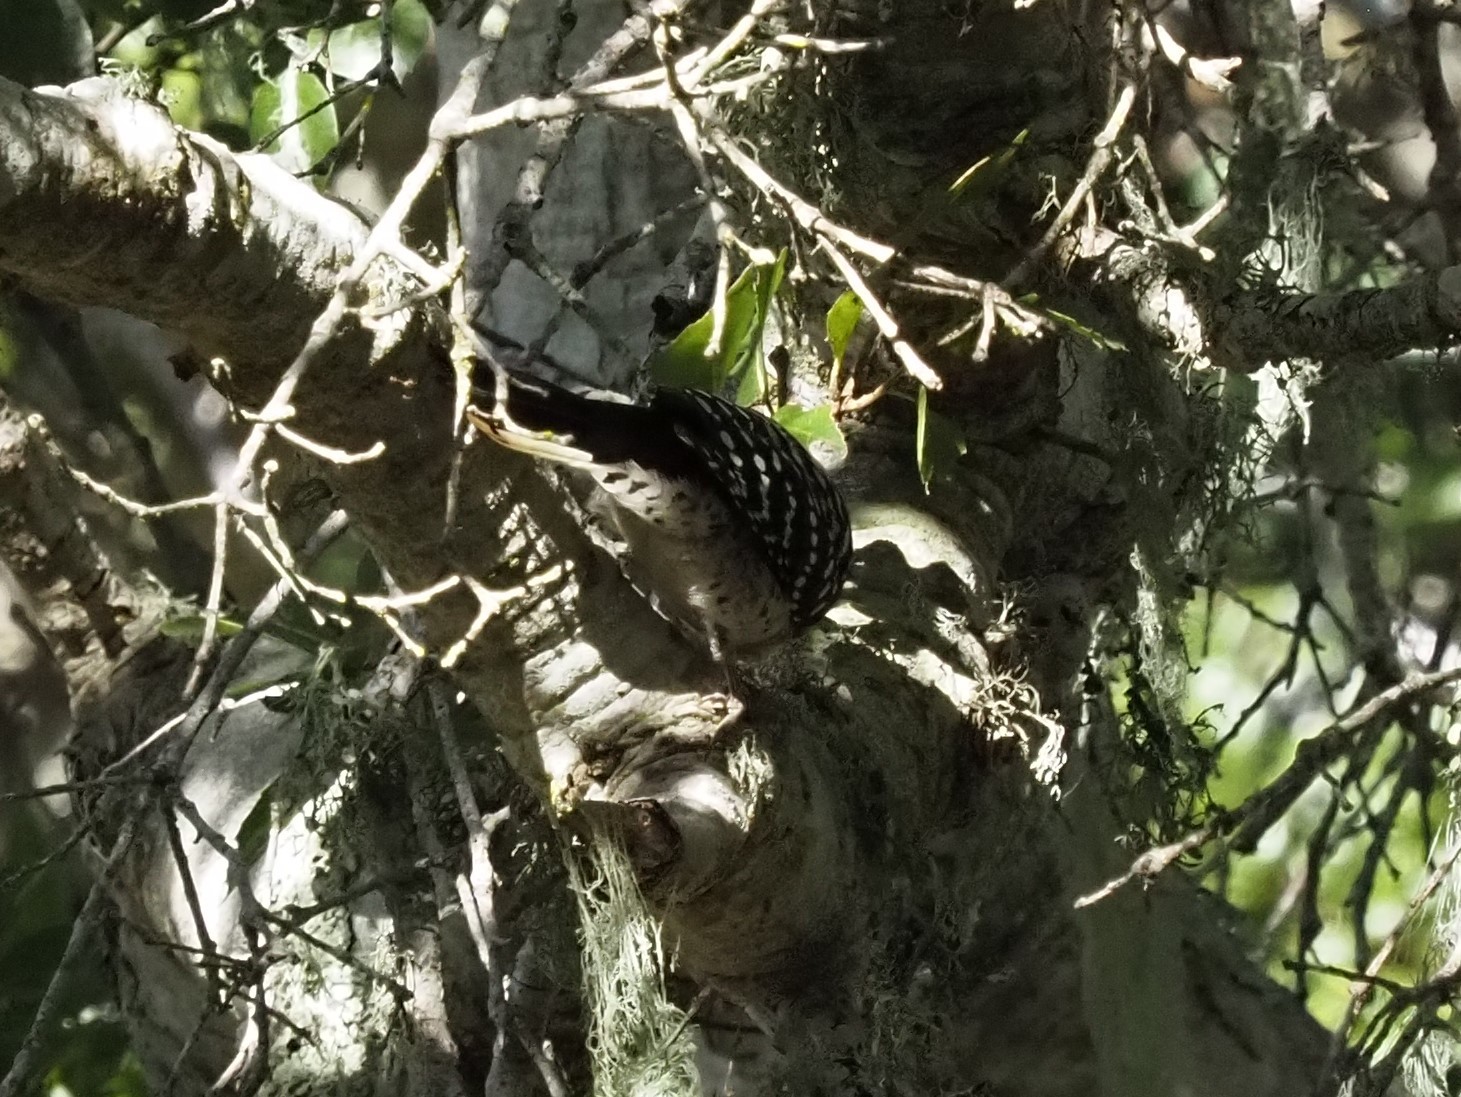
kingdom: Animalia
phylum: Chordata
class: Aves
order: Piciformes
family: Picidae
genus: Dryobates
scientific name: Dryobates nuttallii
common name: Nuttall's woodpecker
